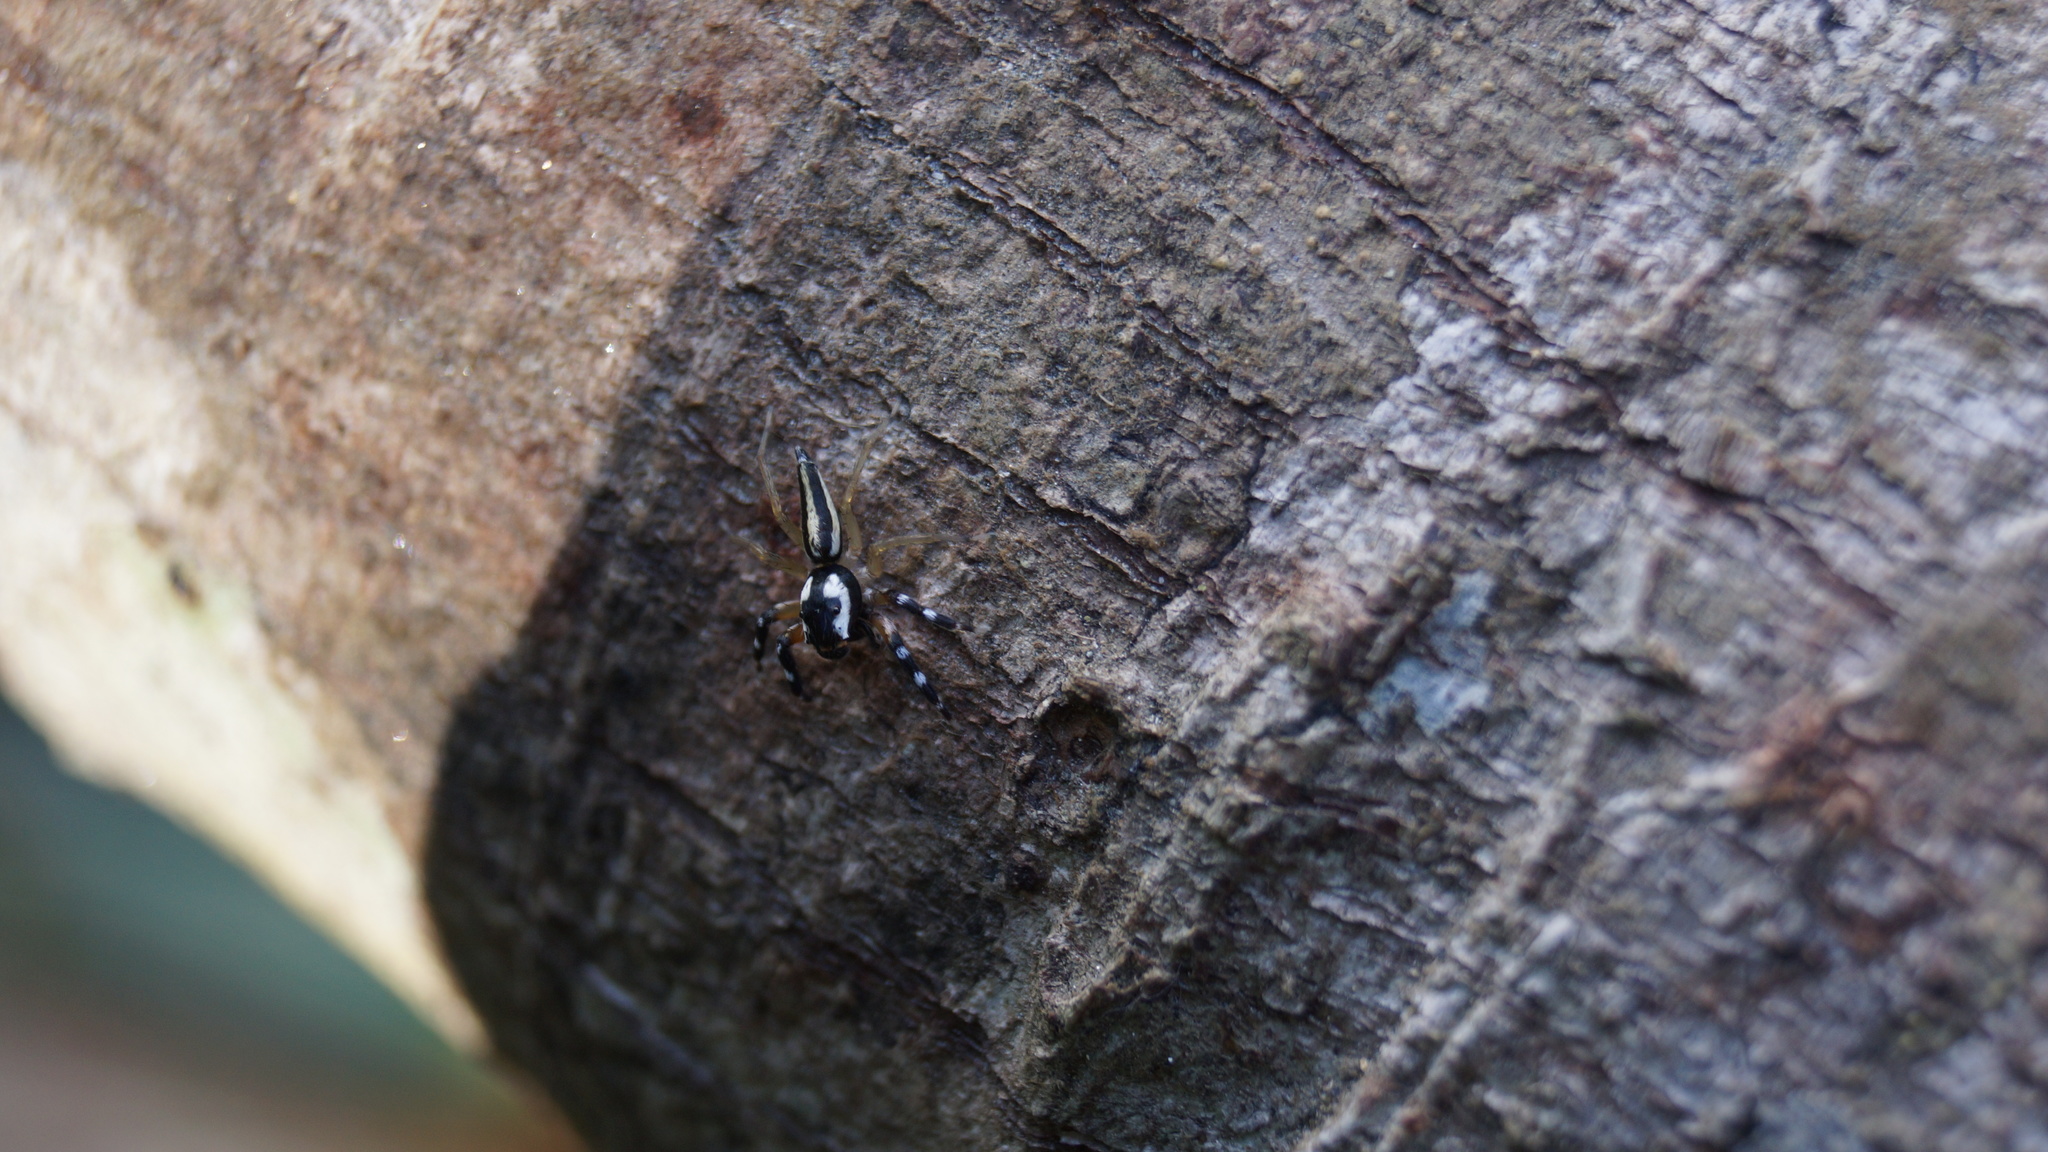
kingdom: Animalia
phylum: Arthropoda
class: Arachnida
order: Araneae
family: Salticidae
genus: Chira
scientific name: Chira trivittata
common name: Jumping spiders
